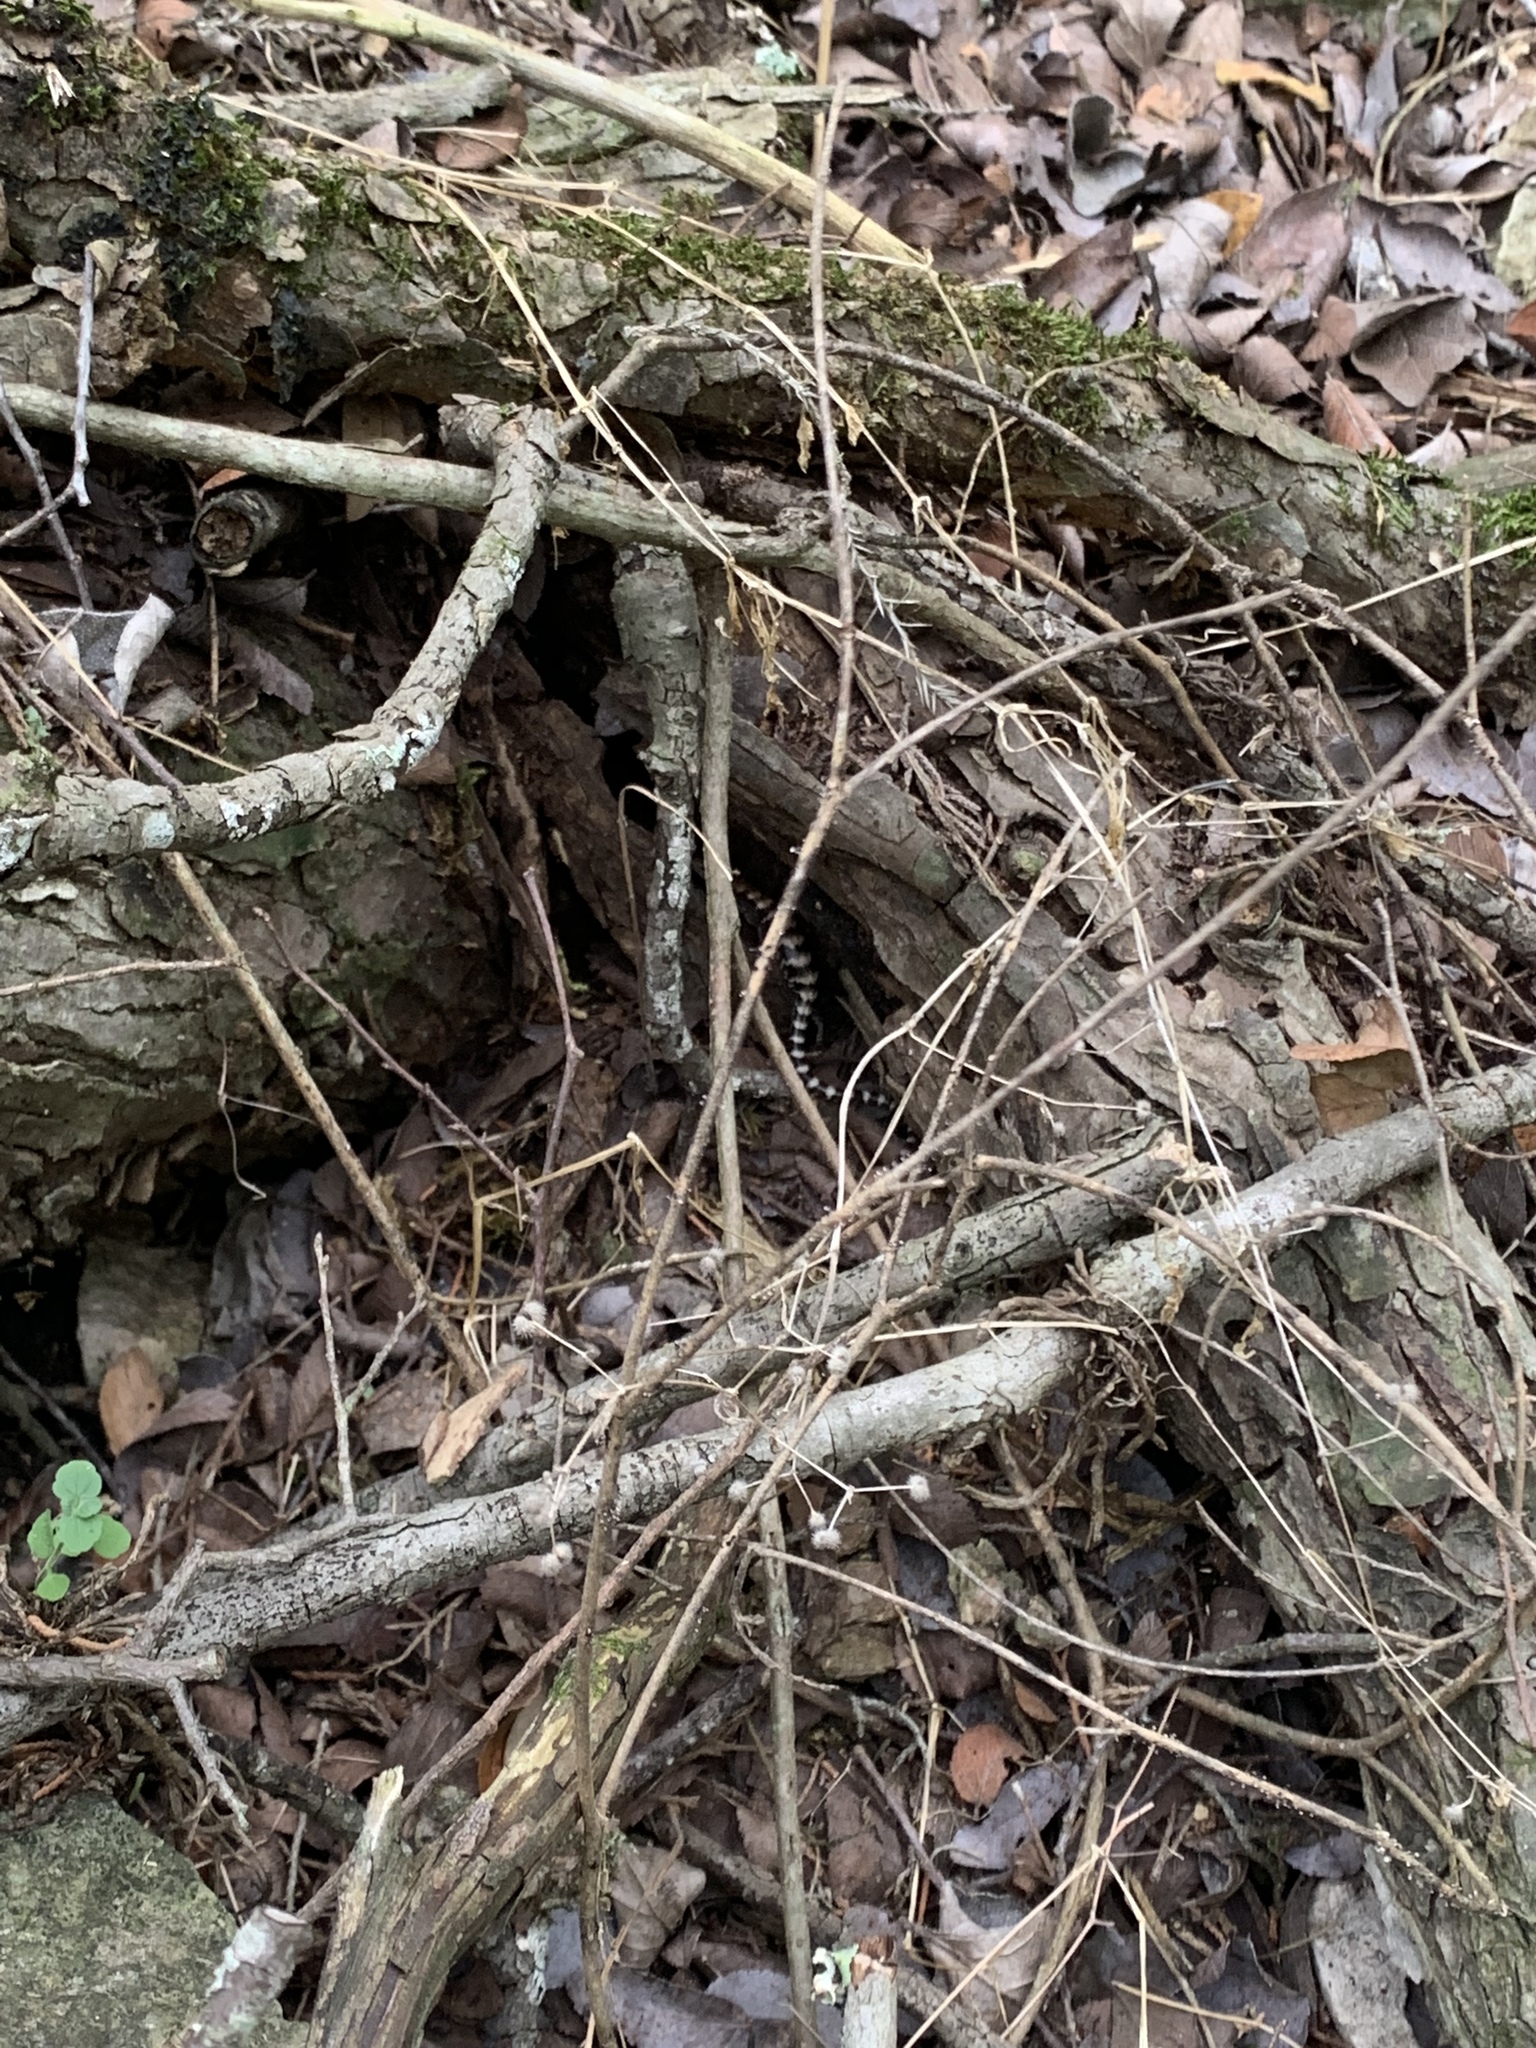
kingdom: Animalia
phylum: Chordata
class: Squamata
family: Anguidae
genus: Gerrhonotus
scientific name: Gerrhonotus infernalis
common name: Texas alligator lizard
